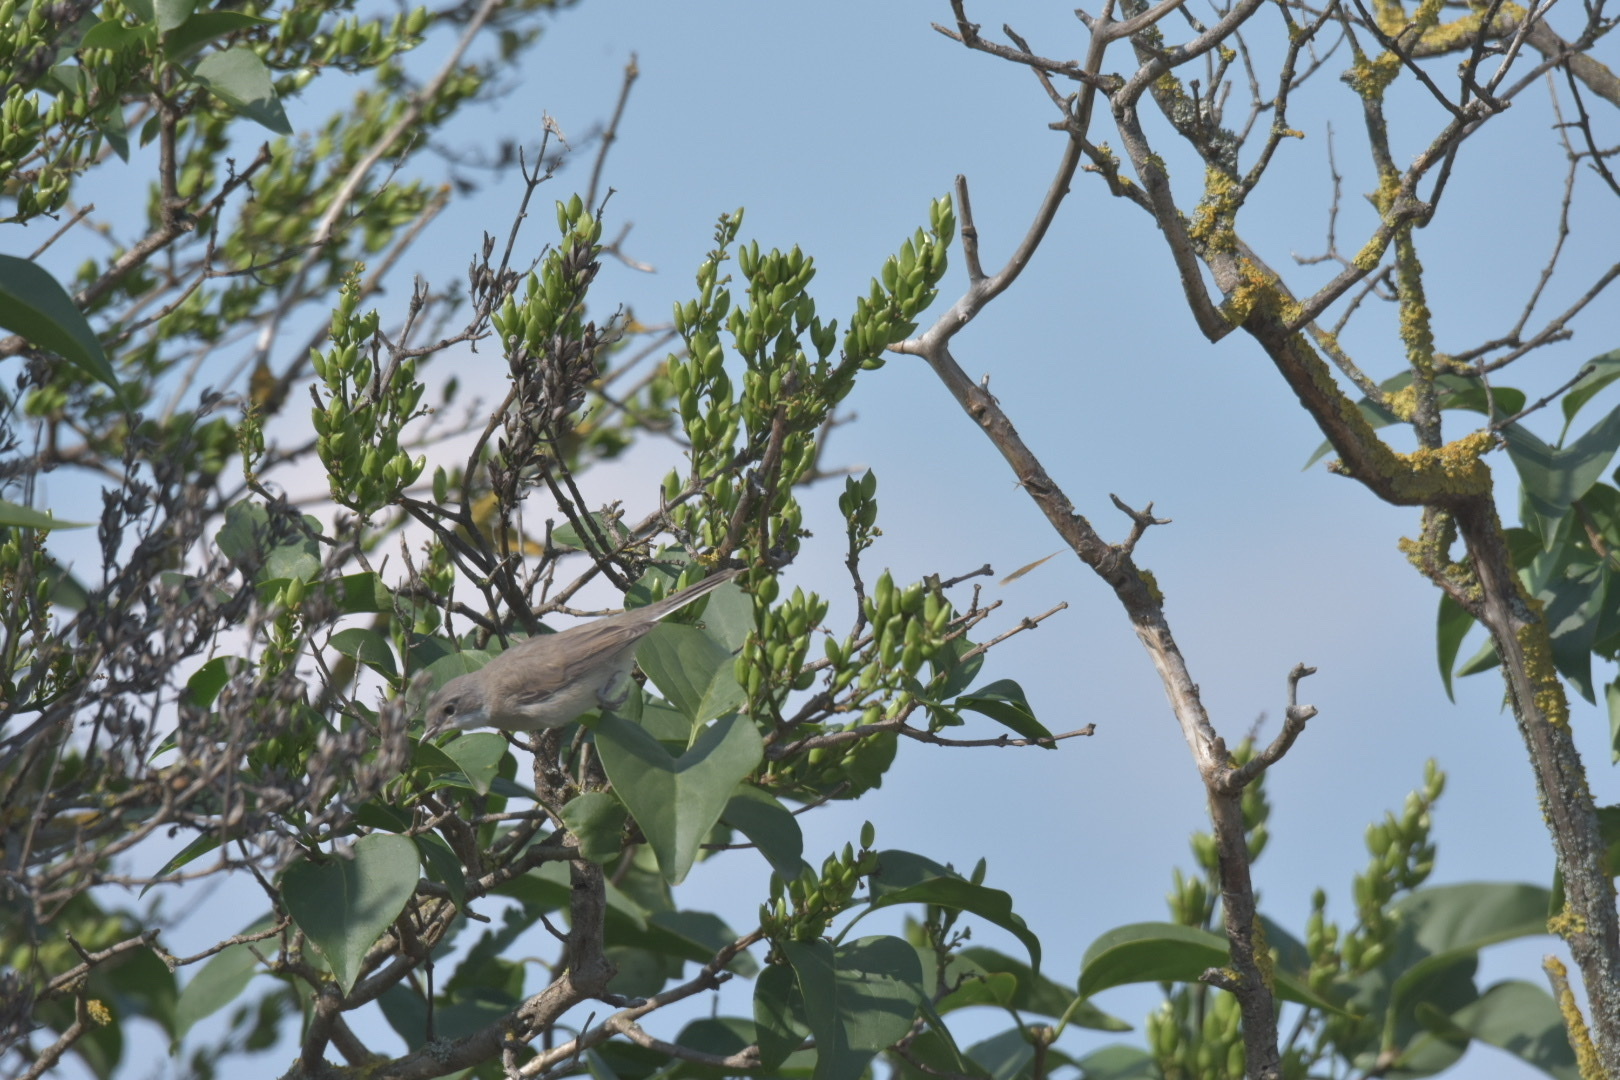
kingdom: Animalia
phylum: Chordata
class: Aves
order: Passeriformes
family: Sylviidae
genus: Sylvia
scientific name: Sylvia curruca
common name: Lesser whitethroat
